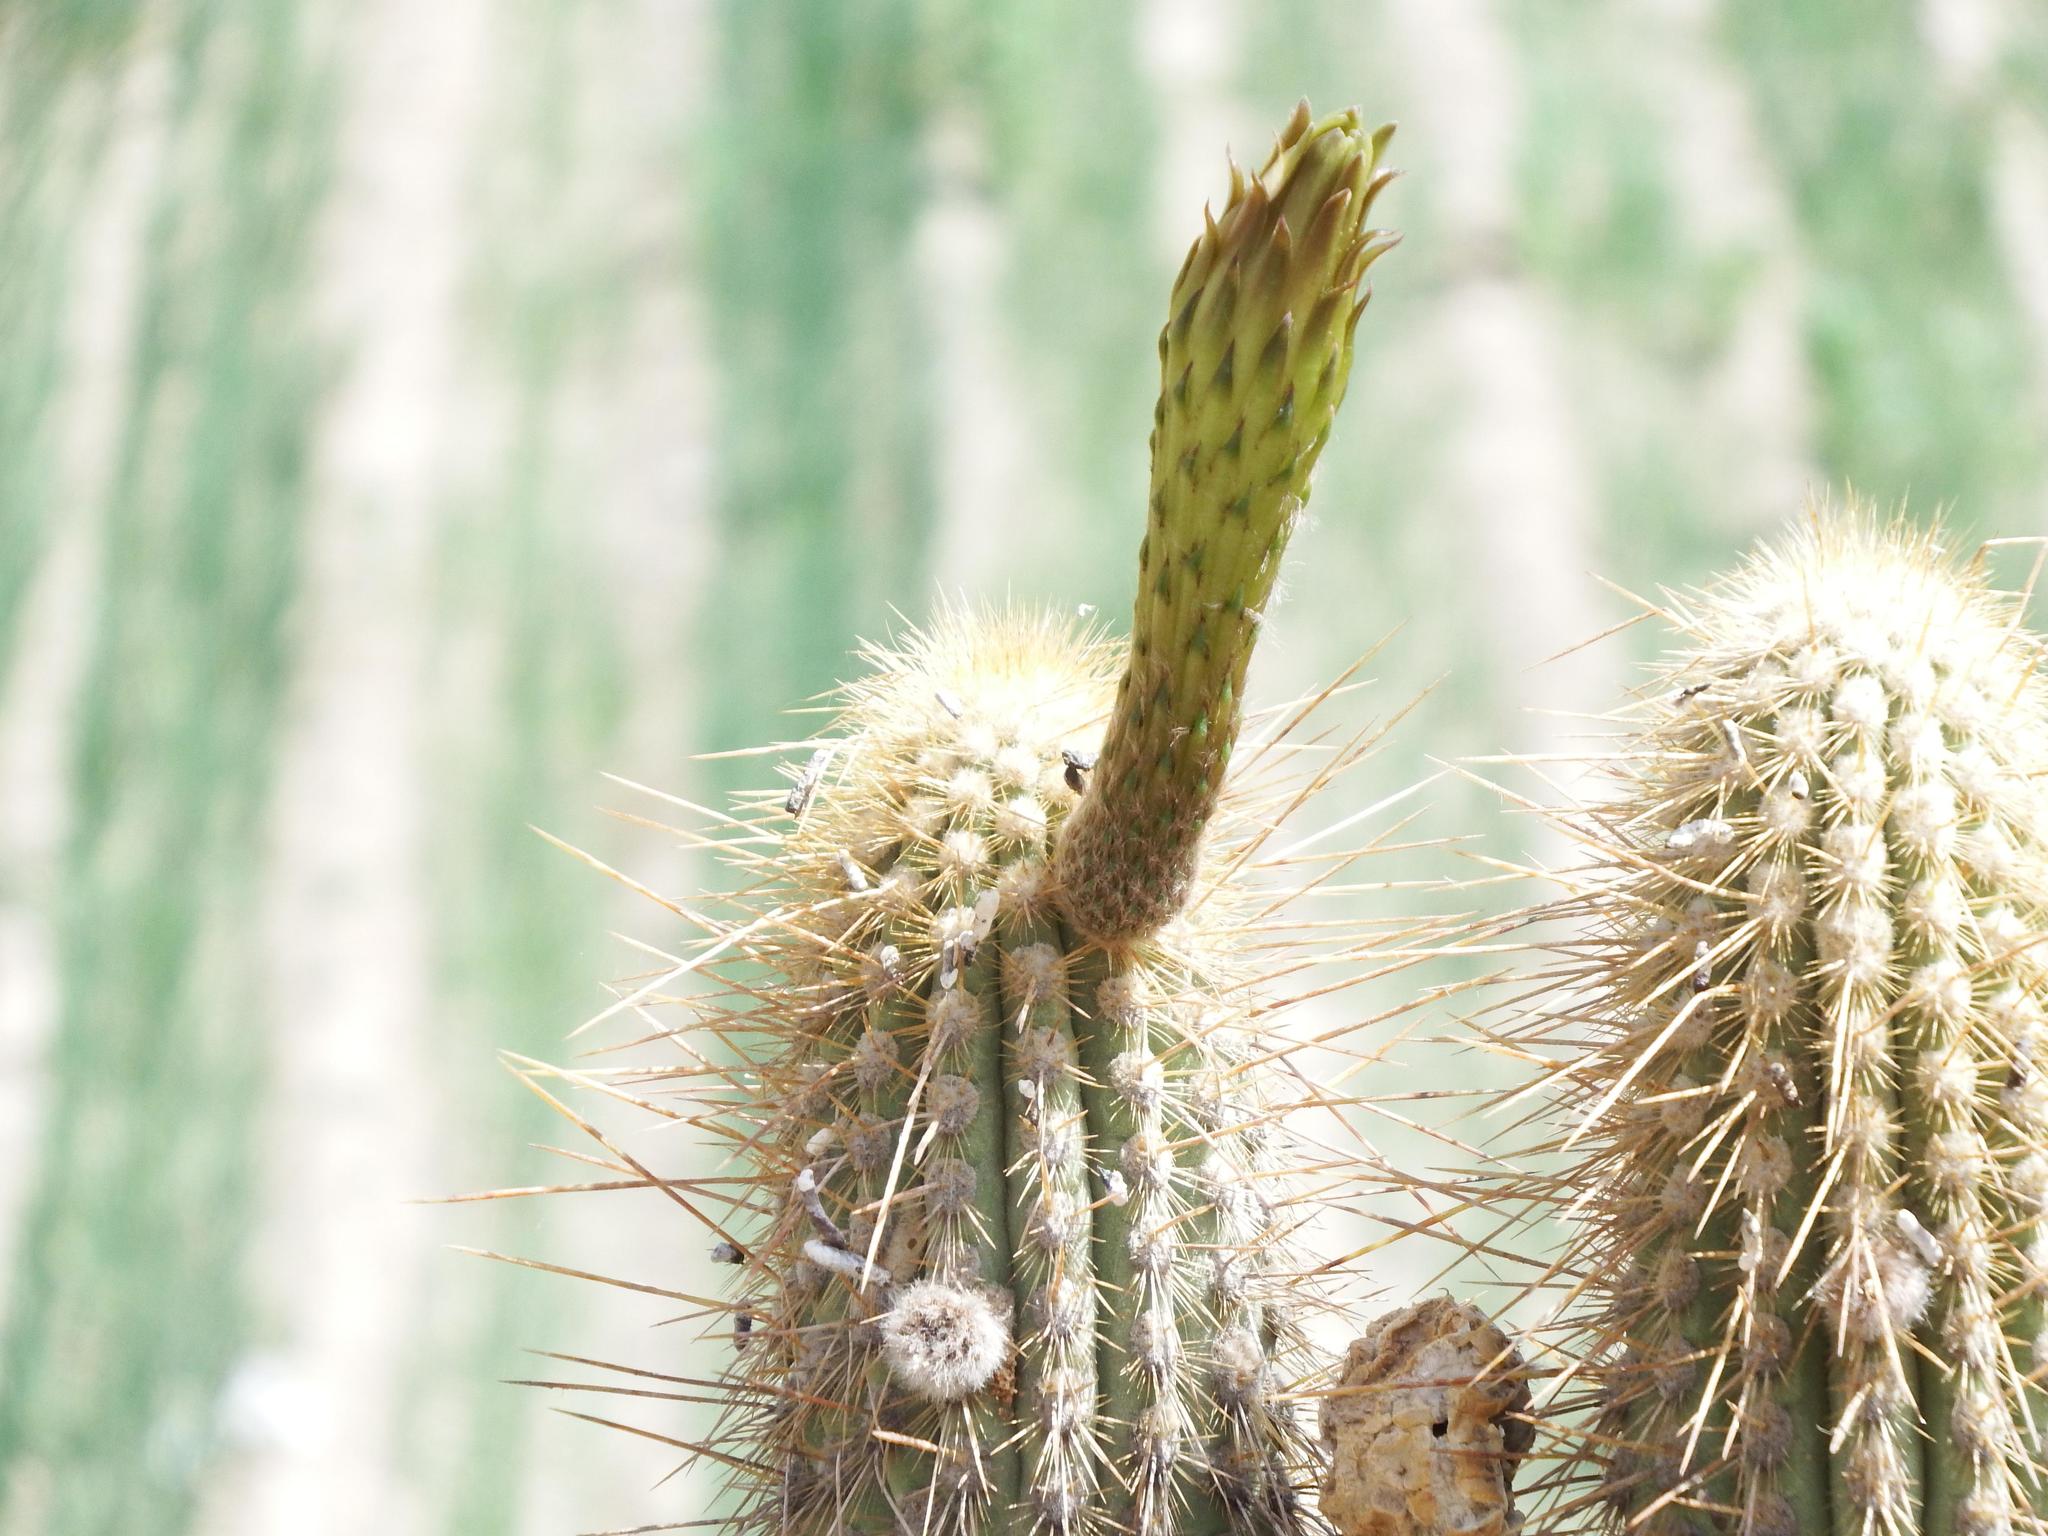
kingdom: Plantae
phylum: Tracheophyta
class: Magnoliopsida
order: Caryophyllales
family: Cactaceae
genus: Weberbauerocereus
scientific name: Weberbauerocereus weberbaueri
